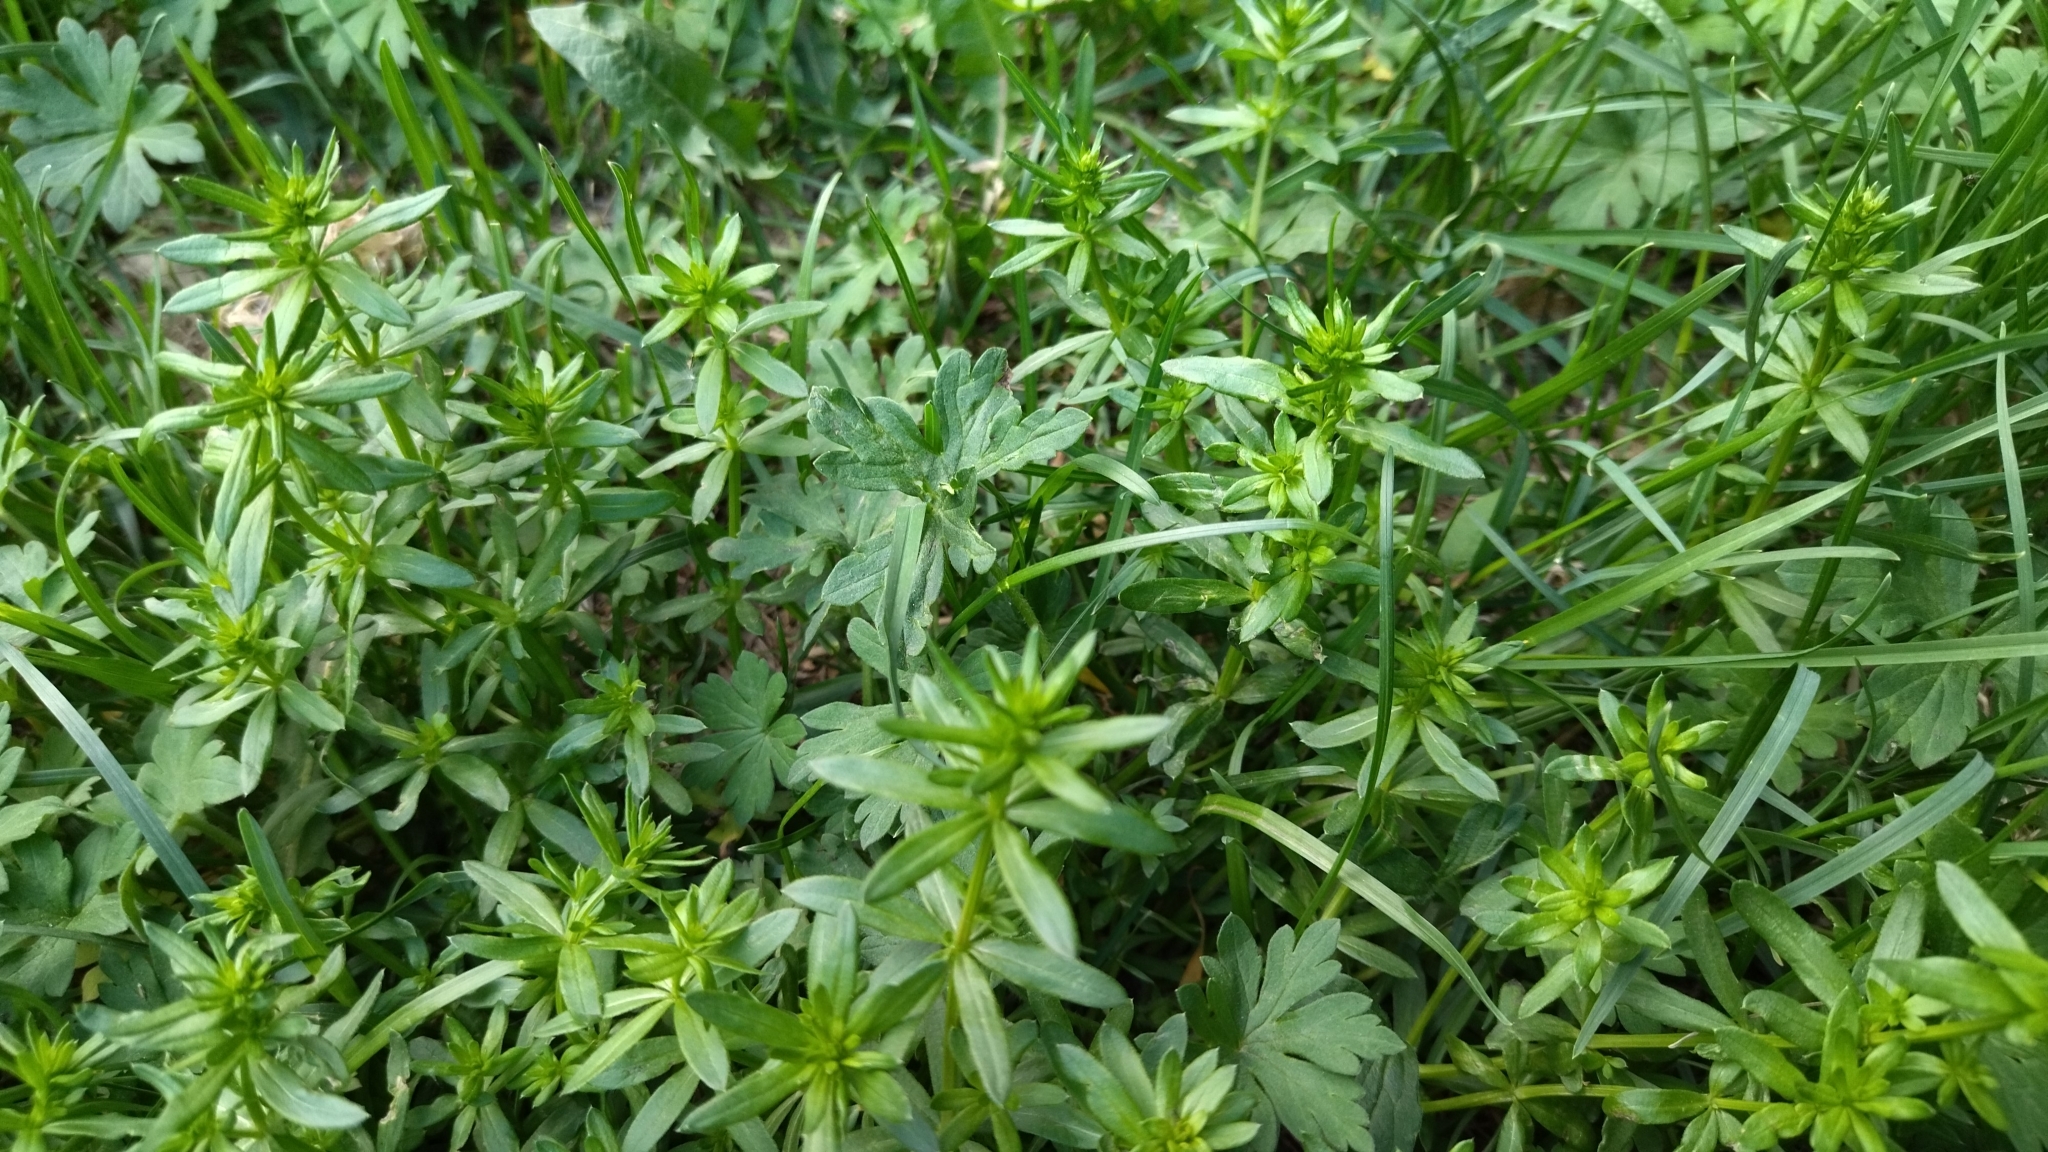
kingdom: Plantae
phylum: Tracheophyta
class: Magnoliopsida
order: Gentianales
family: Rubiaceae
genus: Galium
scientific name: Galium mollugo
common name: Hedge bedstraw
